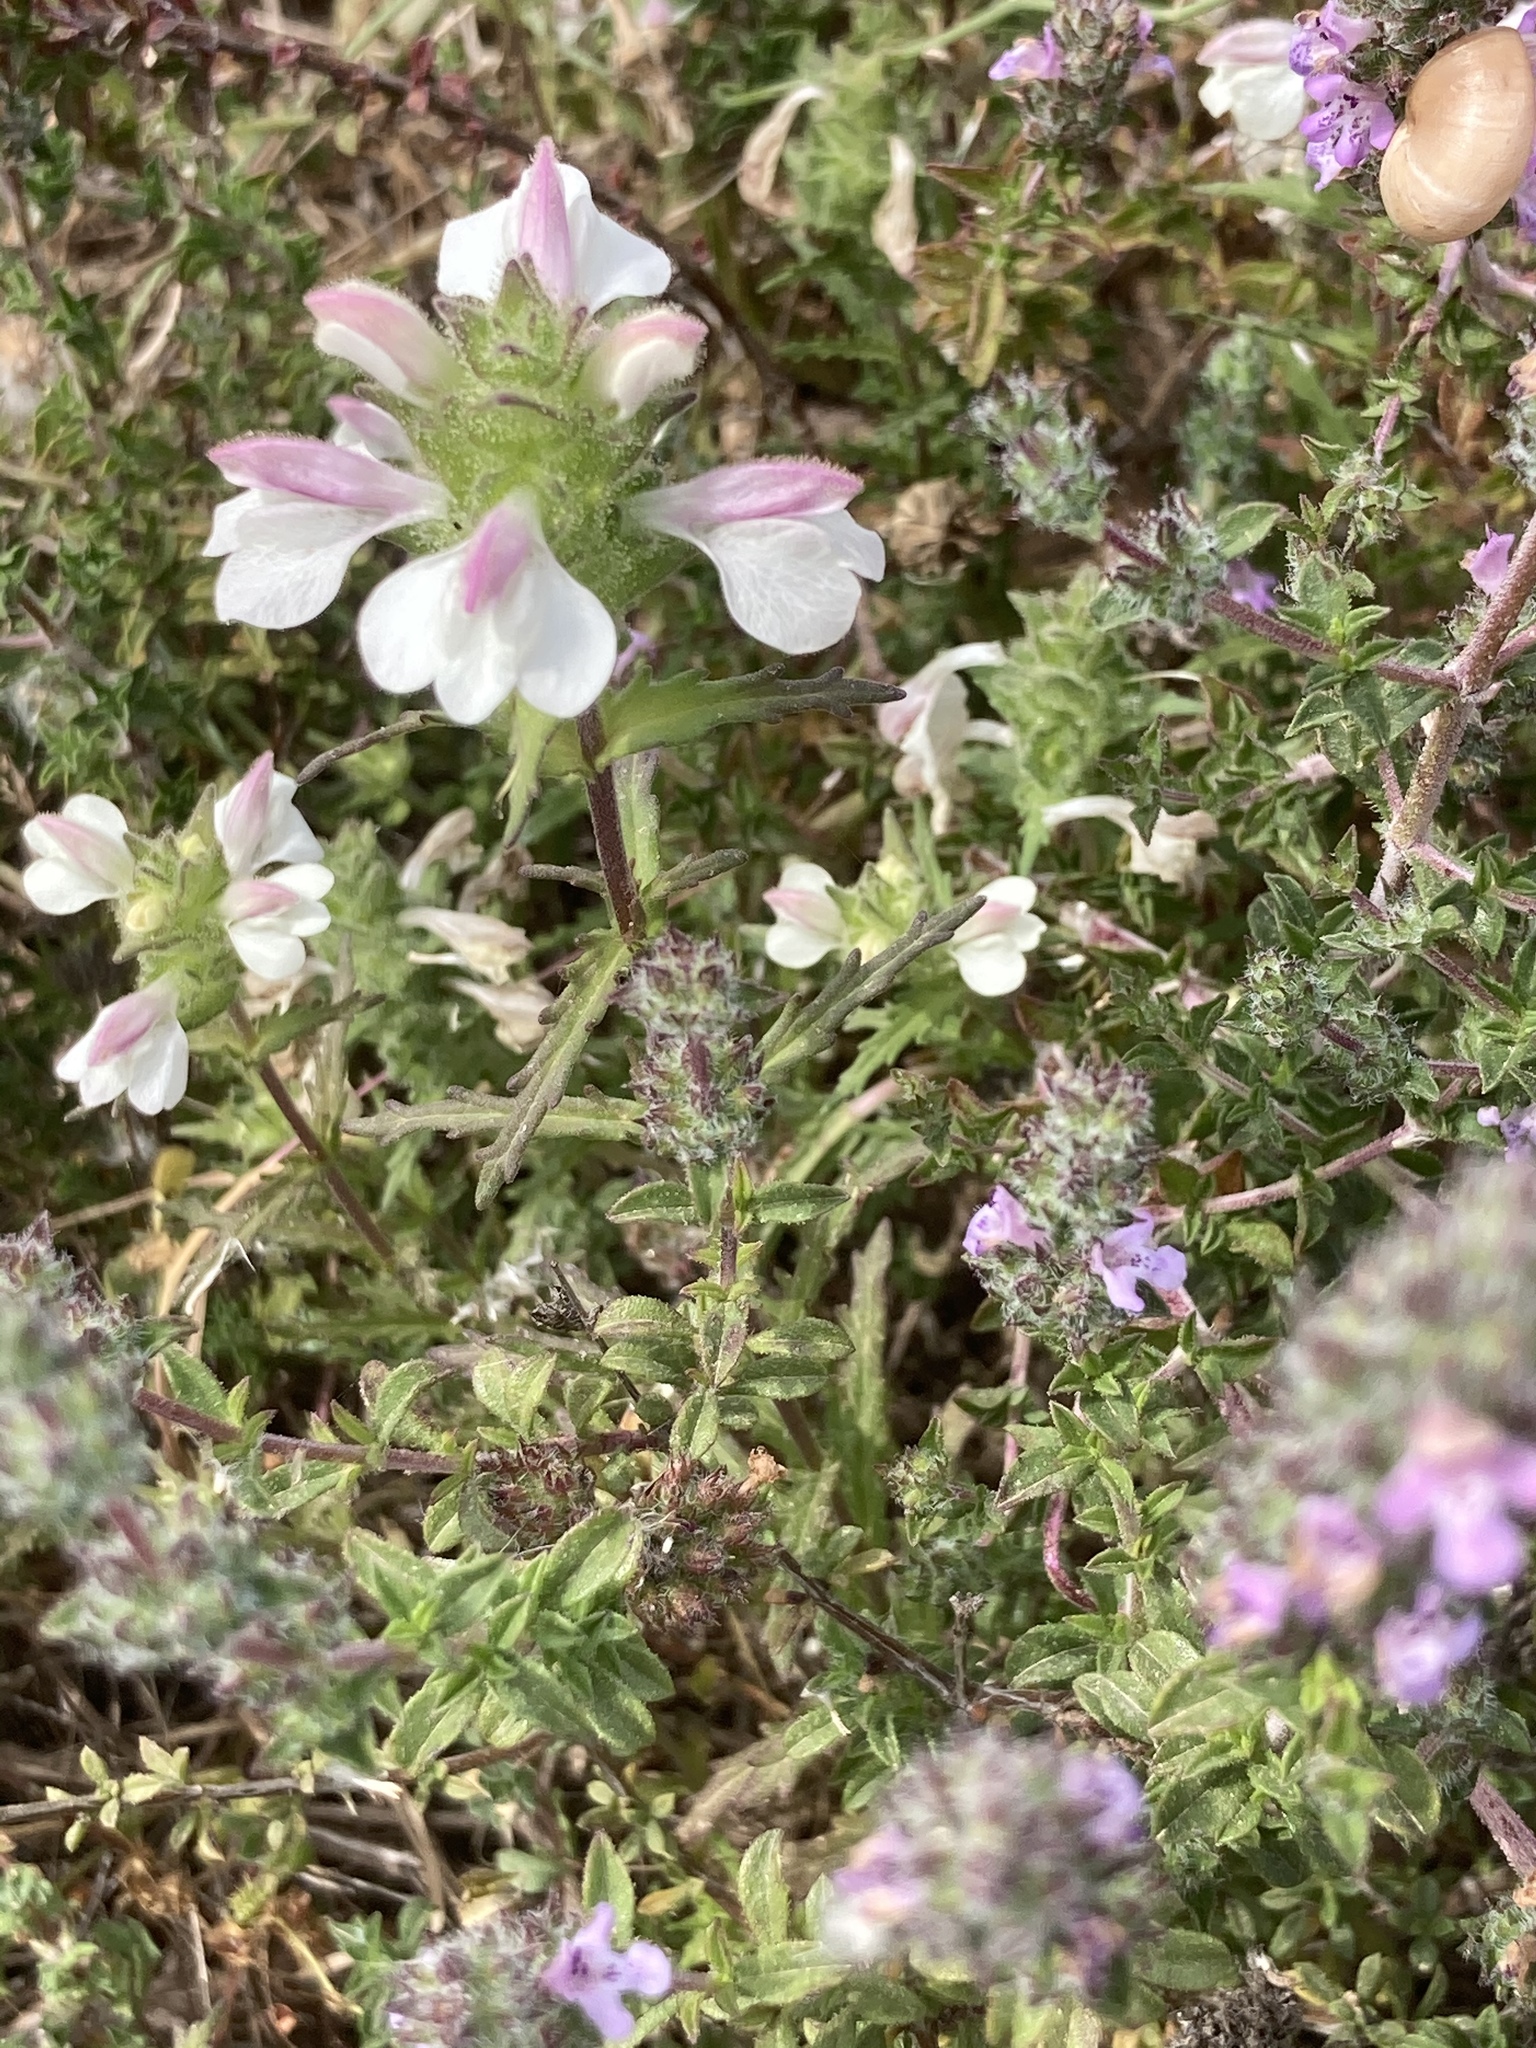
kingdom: Plantae
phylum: Tracheophyta
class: Magnoliopsida
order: Lamiales
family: Orobanchaceae
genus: Bellardia
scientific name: Bellardia trixago
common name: Mediterranean lineseed
